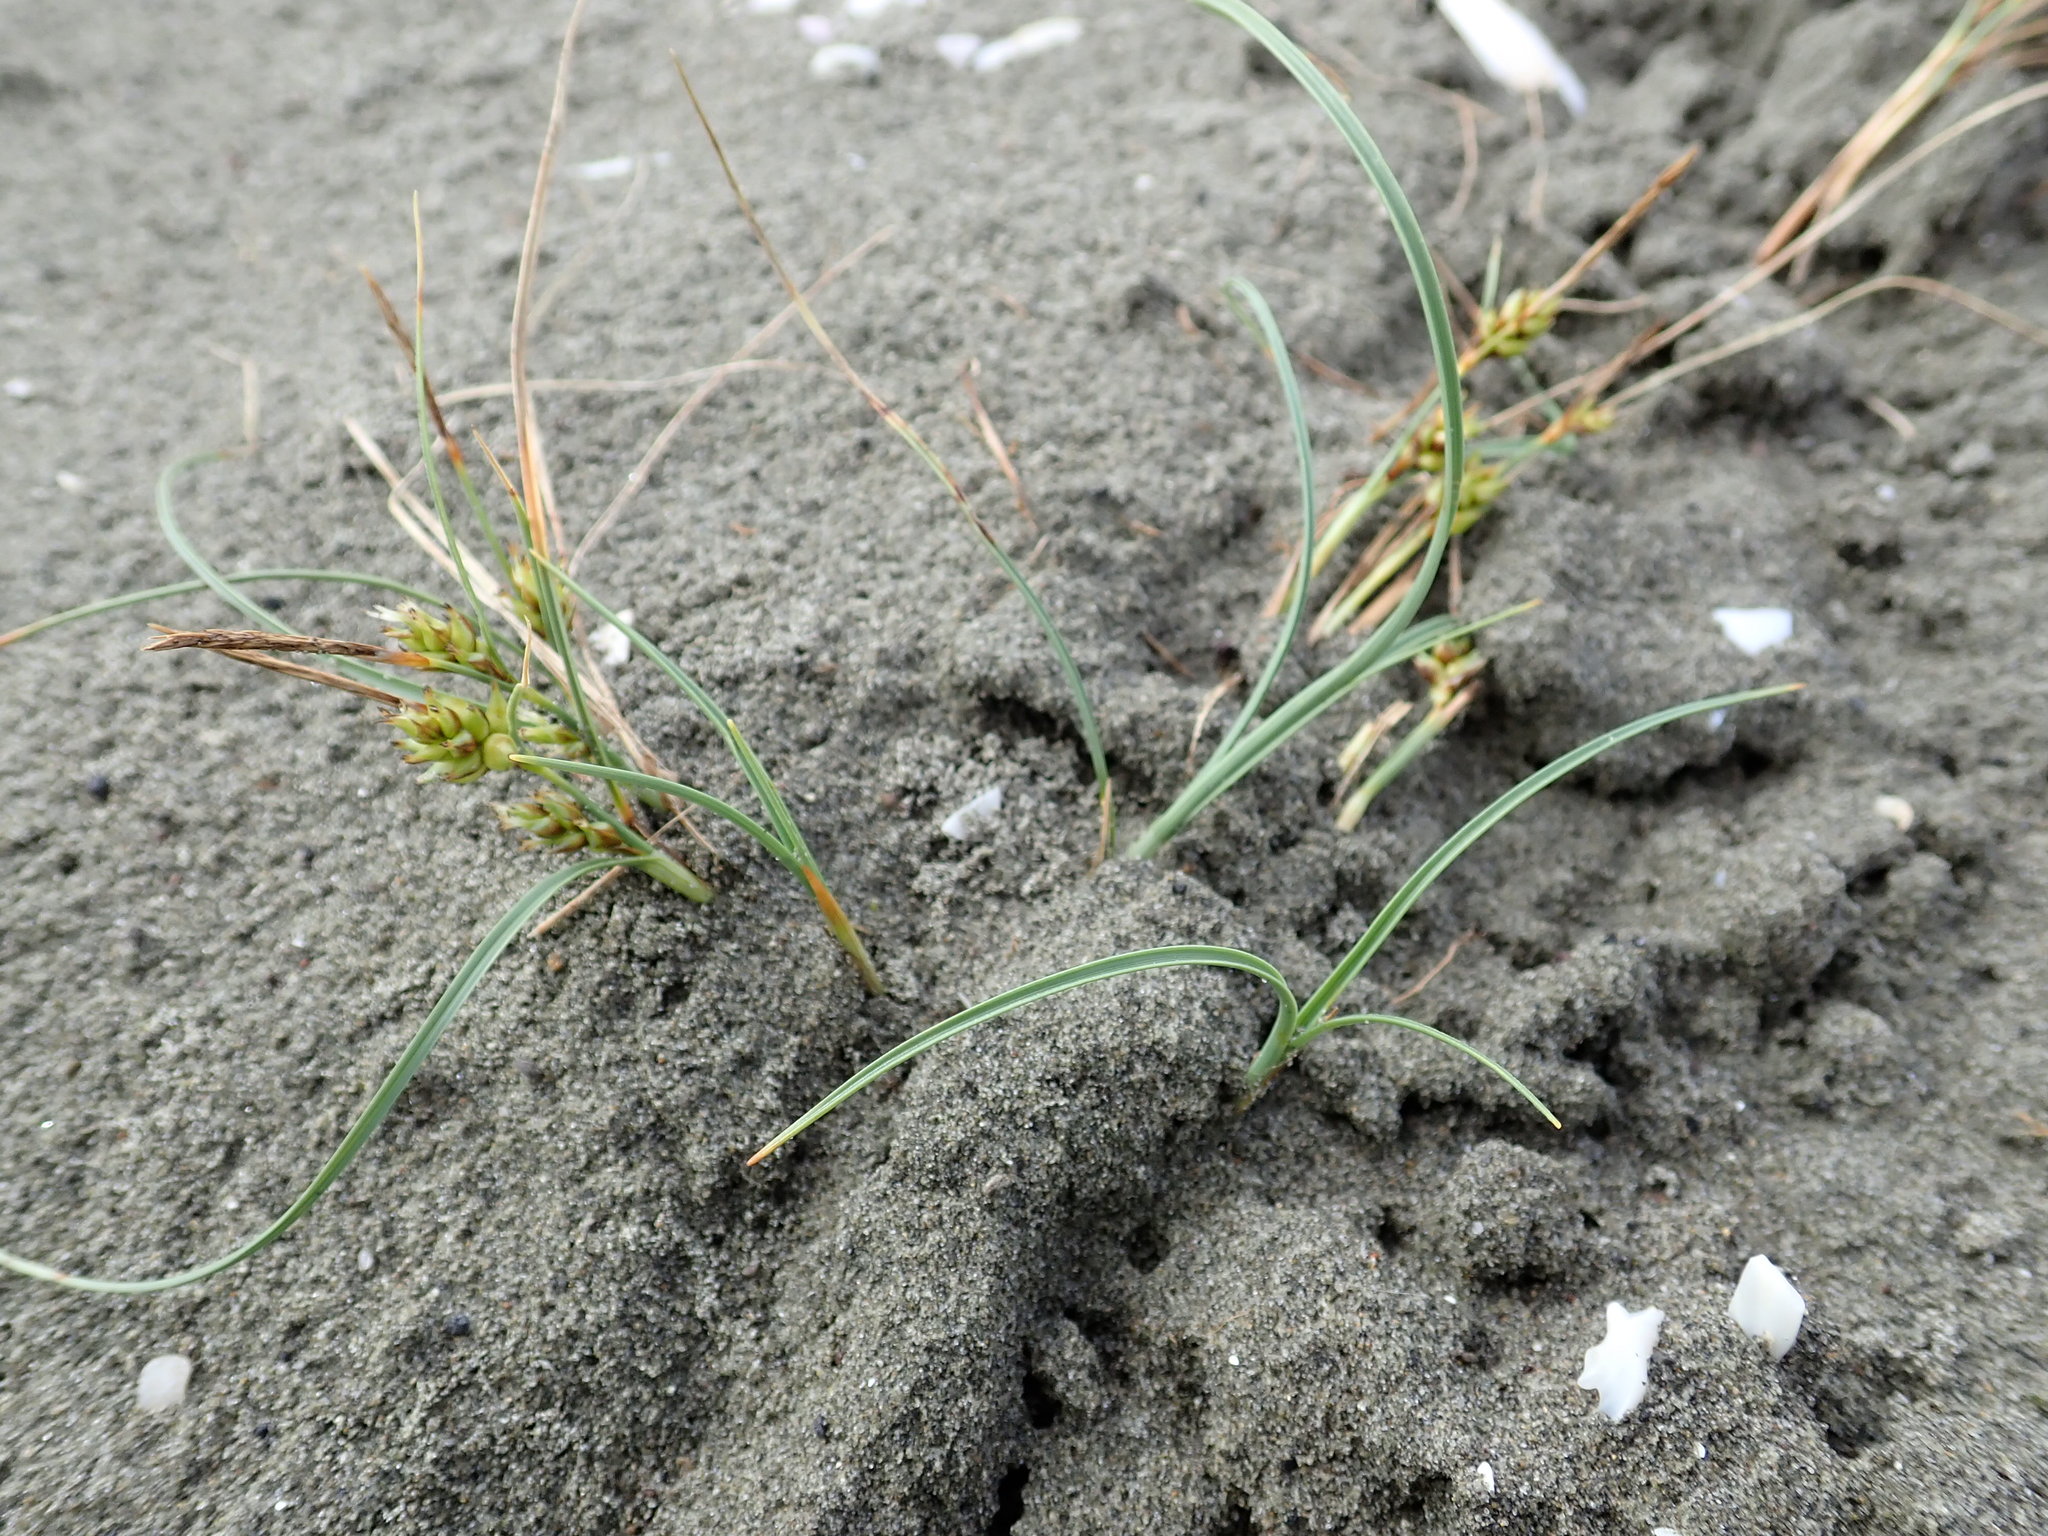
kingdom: Plantae
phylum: Tracheophyta
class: Liliopsida
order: Poales
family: Cyperaceae
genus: Carex
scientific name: Carex pumila
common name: Dwarf sedge
